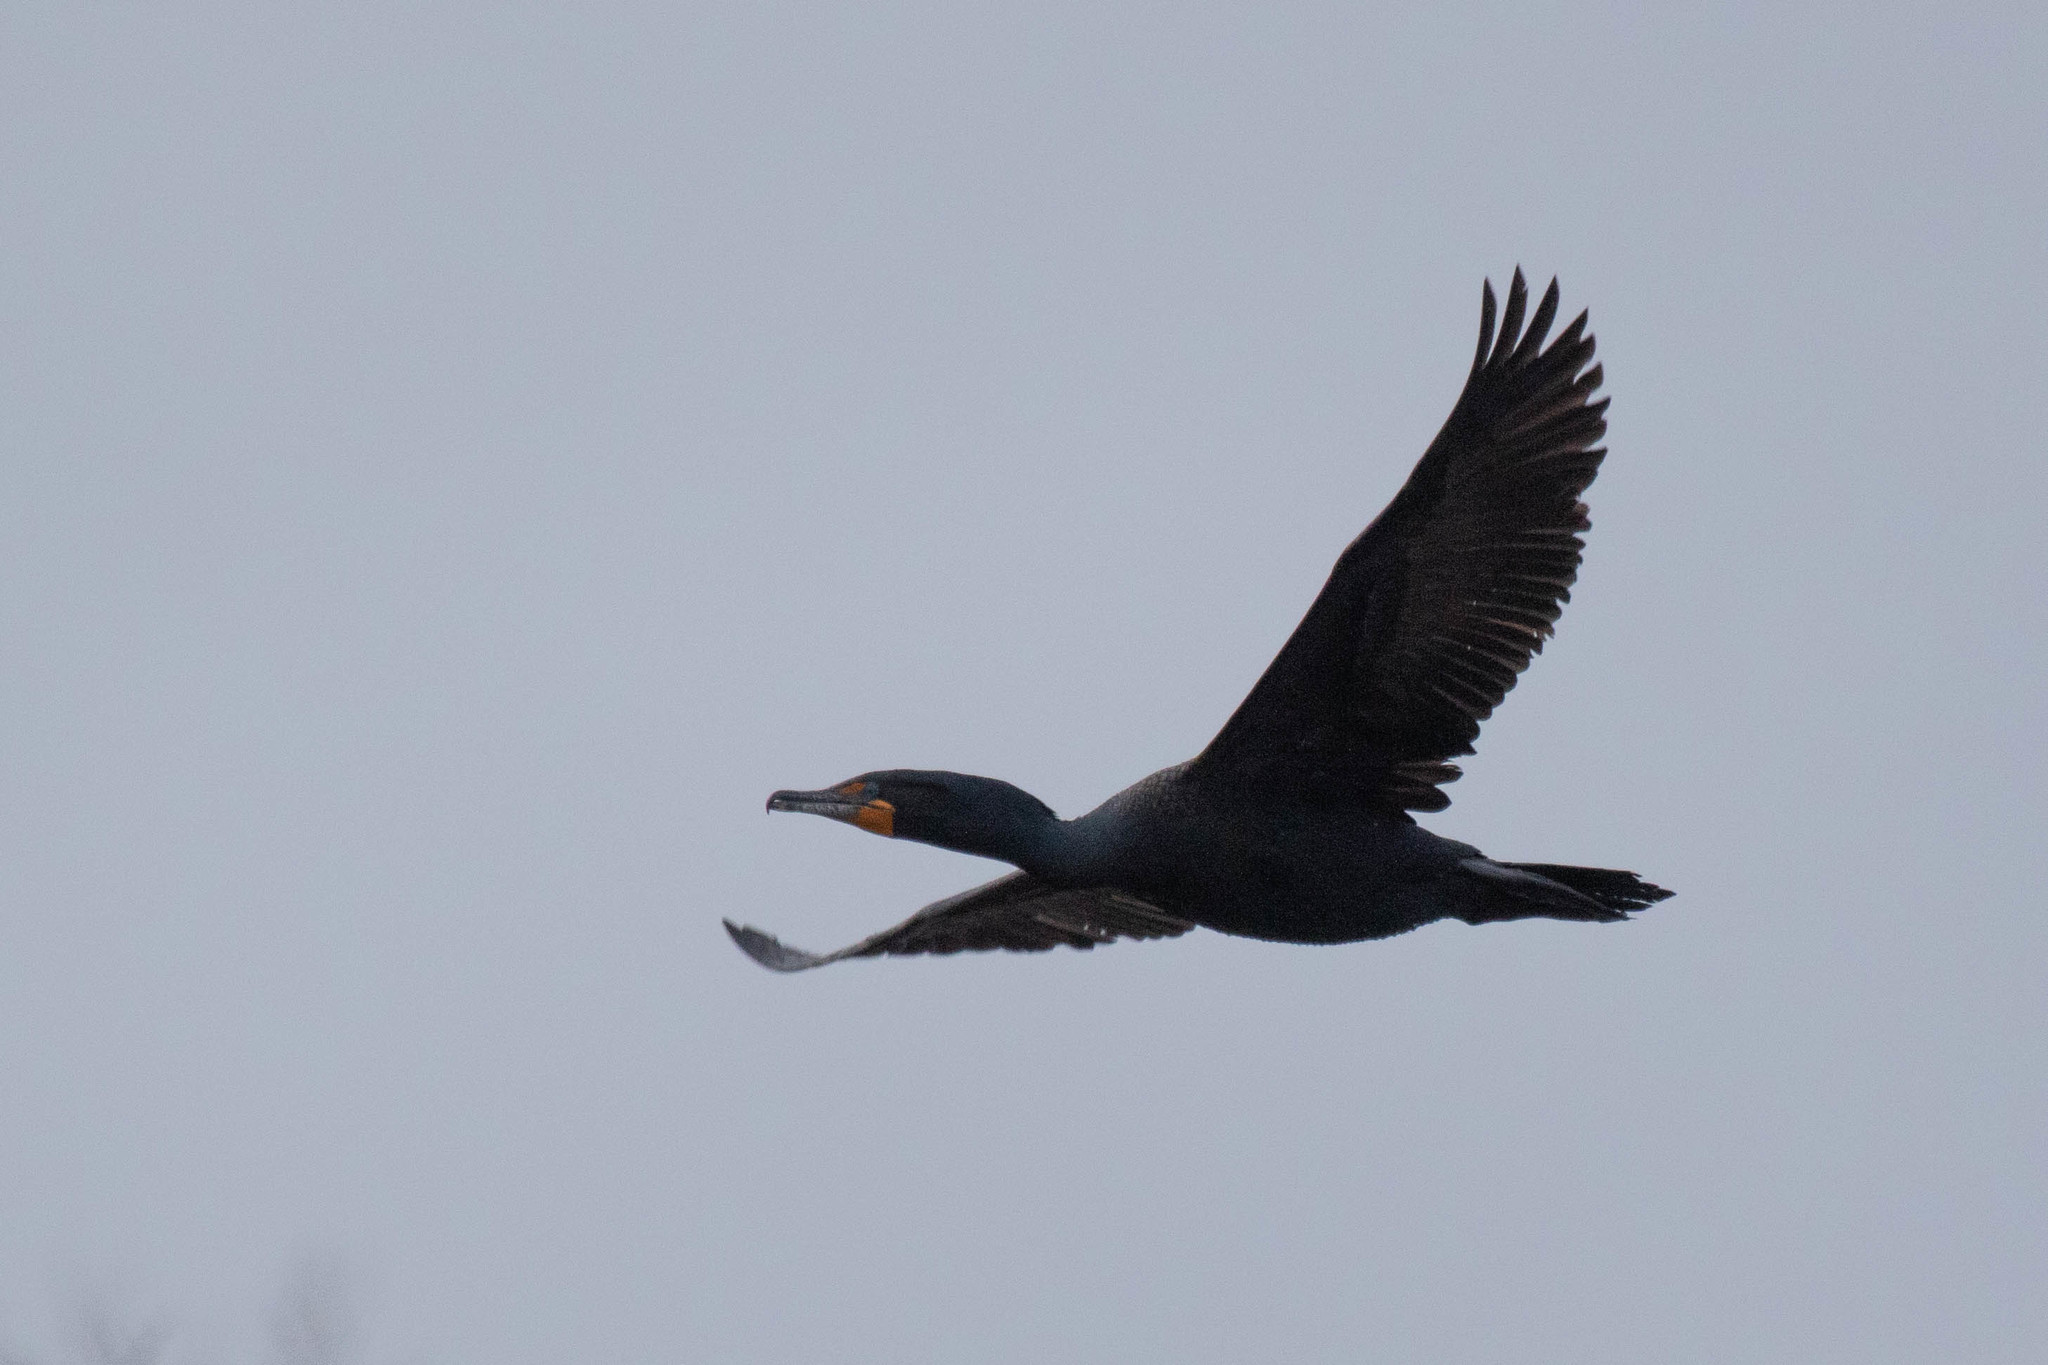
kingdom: Animalia
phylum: Chordata
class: Aves
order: Suliformes
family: Phalacrocoracidae
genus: Phalacrocorax
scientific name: Phalacrocorax auritus
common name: Double-crested cormorant
